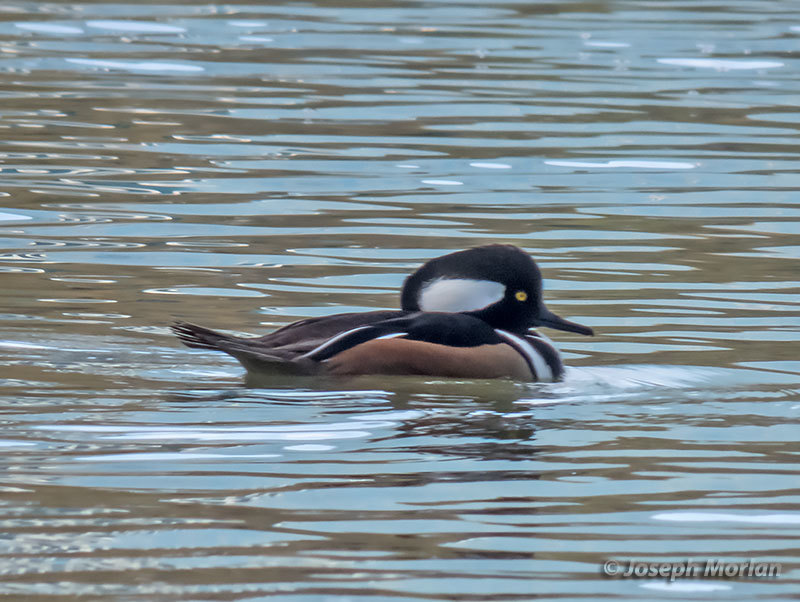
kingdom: Animalia
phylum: Chordata
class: Aves
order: Anseriformes
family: Anatidae
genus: Lophodytes
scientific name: Lophodytes cucullatus
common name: Hooded merganser
